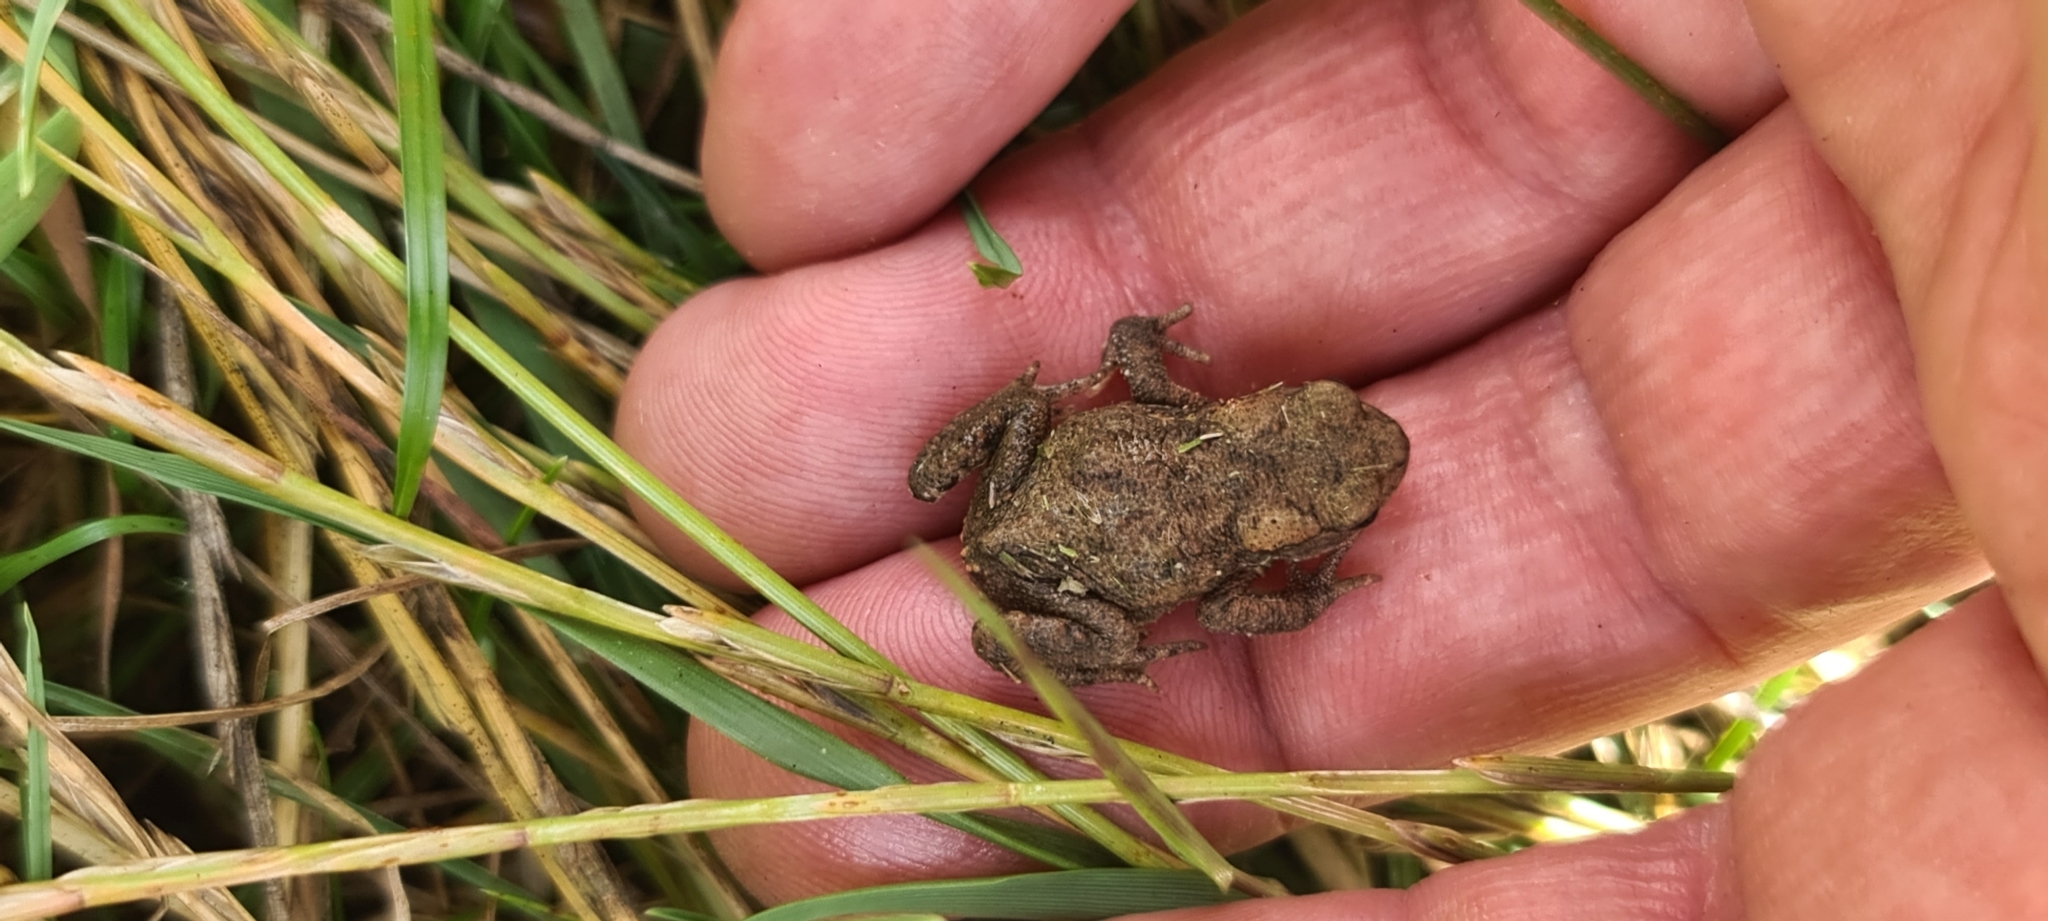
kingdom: Animalia
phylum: Chordata
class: Amphibia
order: Anura
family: Bufonidae
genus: Bufo
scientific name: Bufo bufo
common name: Common toad
